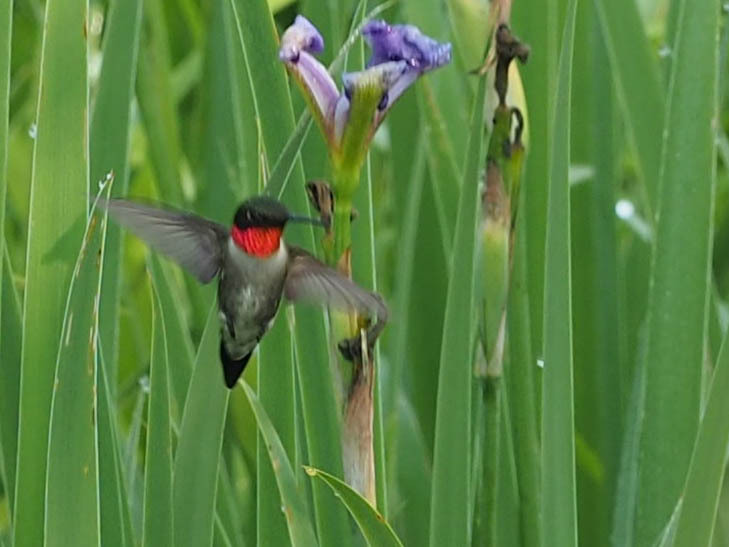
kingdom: Animalia
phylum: Chordata
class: Aves
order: Apodiformes
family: Trochilidae
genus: Archilochus
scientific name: Archilochus colubris
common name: Ruby-throated hummingbird
